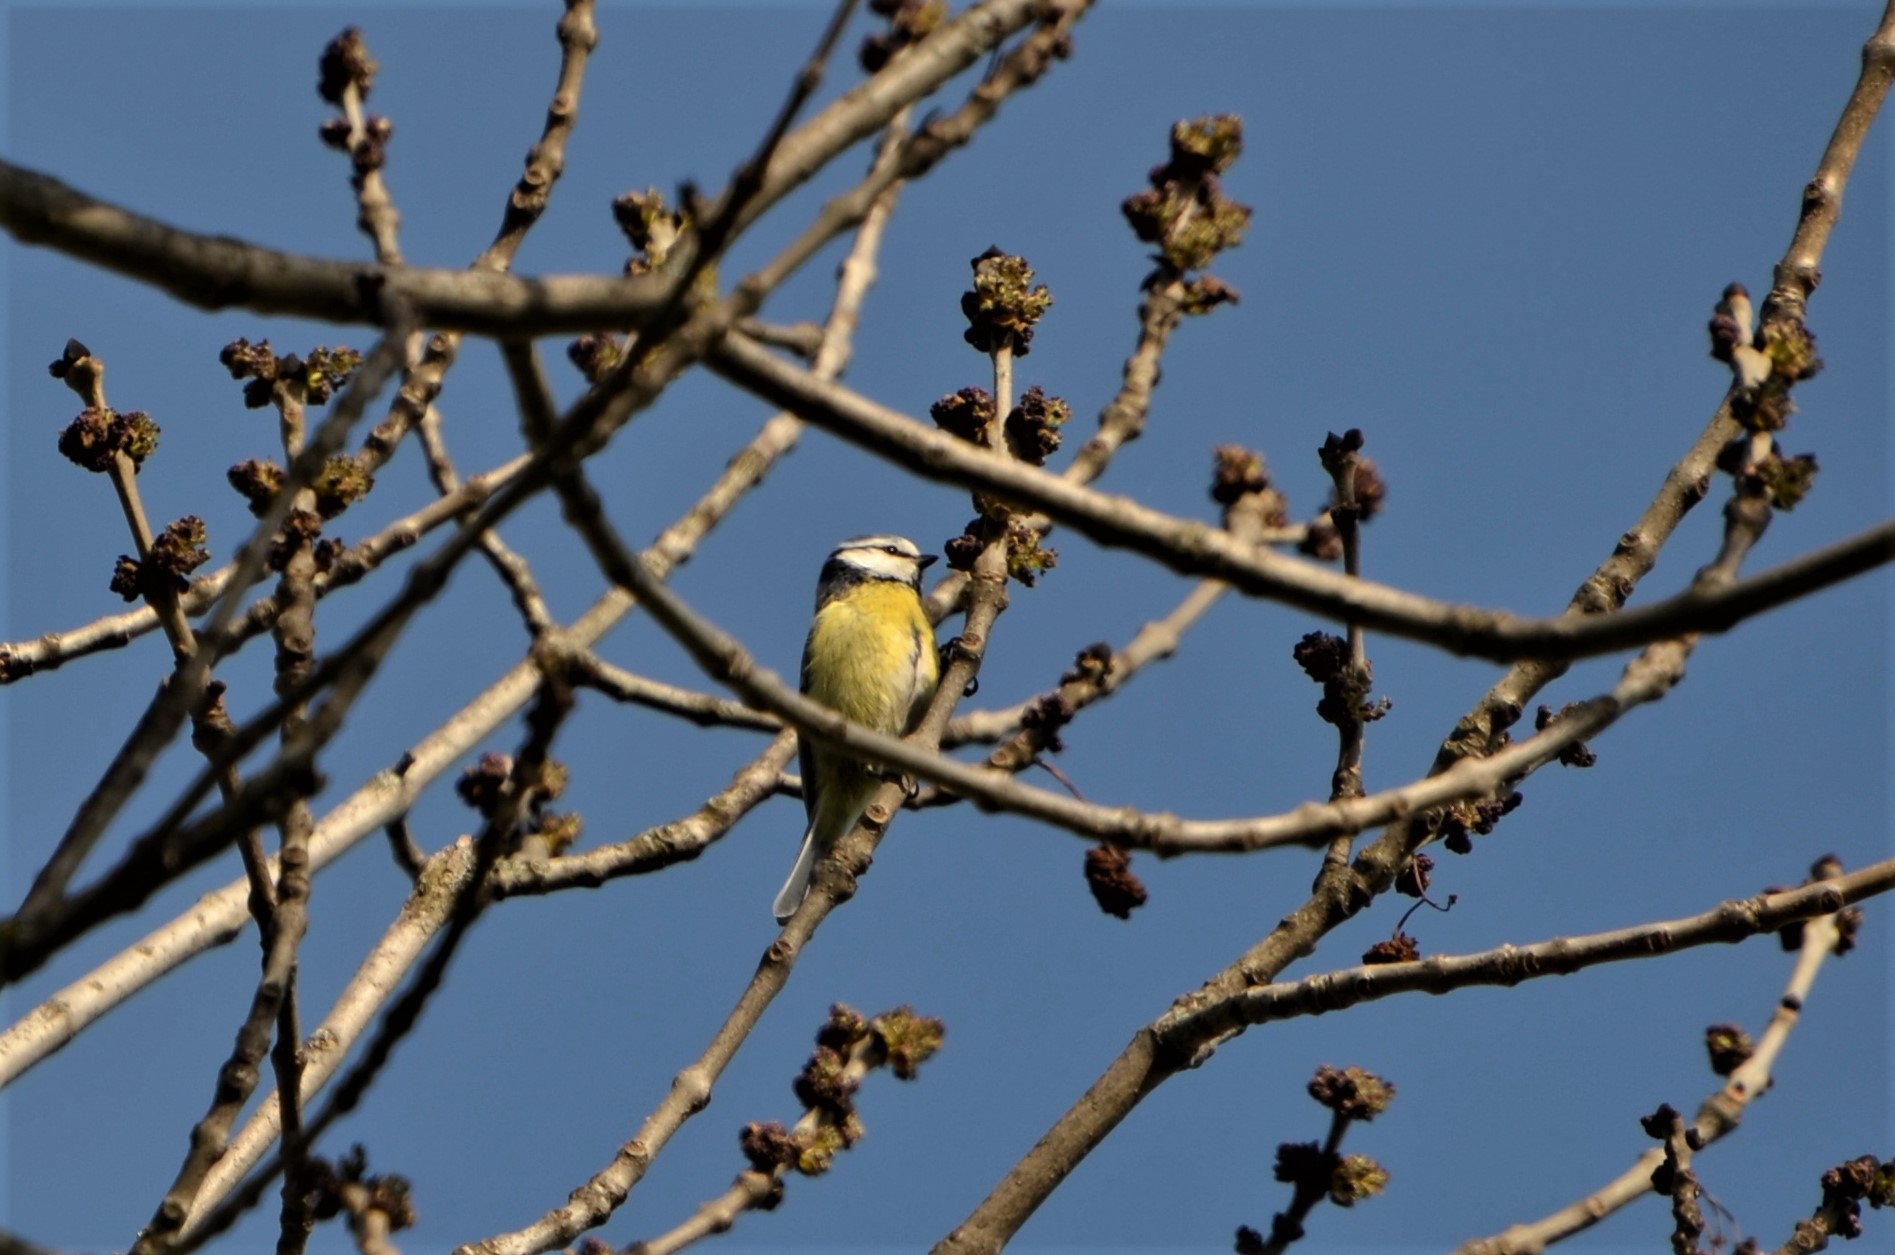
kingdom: Animalia
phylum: Chordata
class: Aves
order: Passeriformes
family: Paridae
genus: Cyanistes
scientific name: Cyanistes caeruleus
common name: Eurasian blue tit
